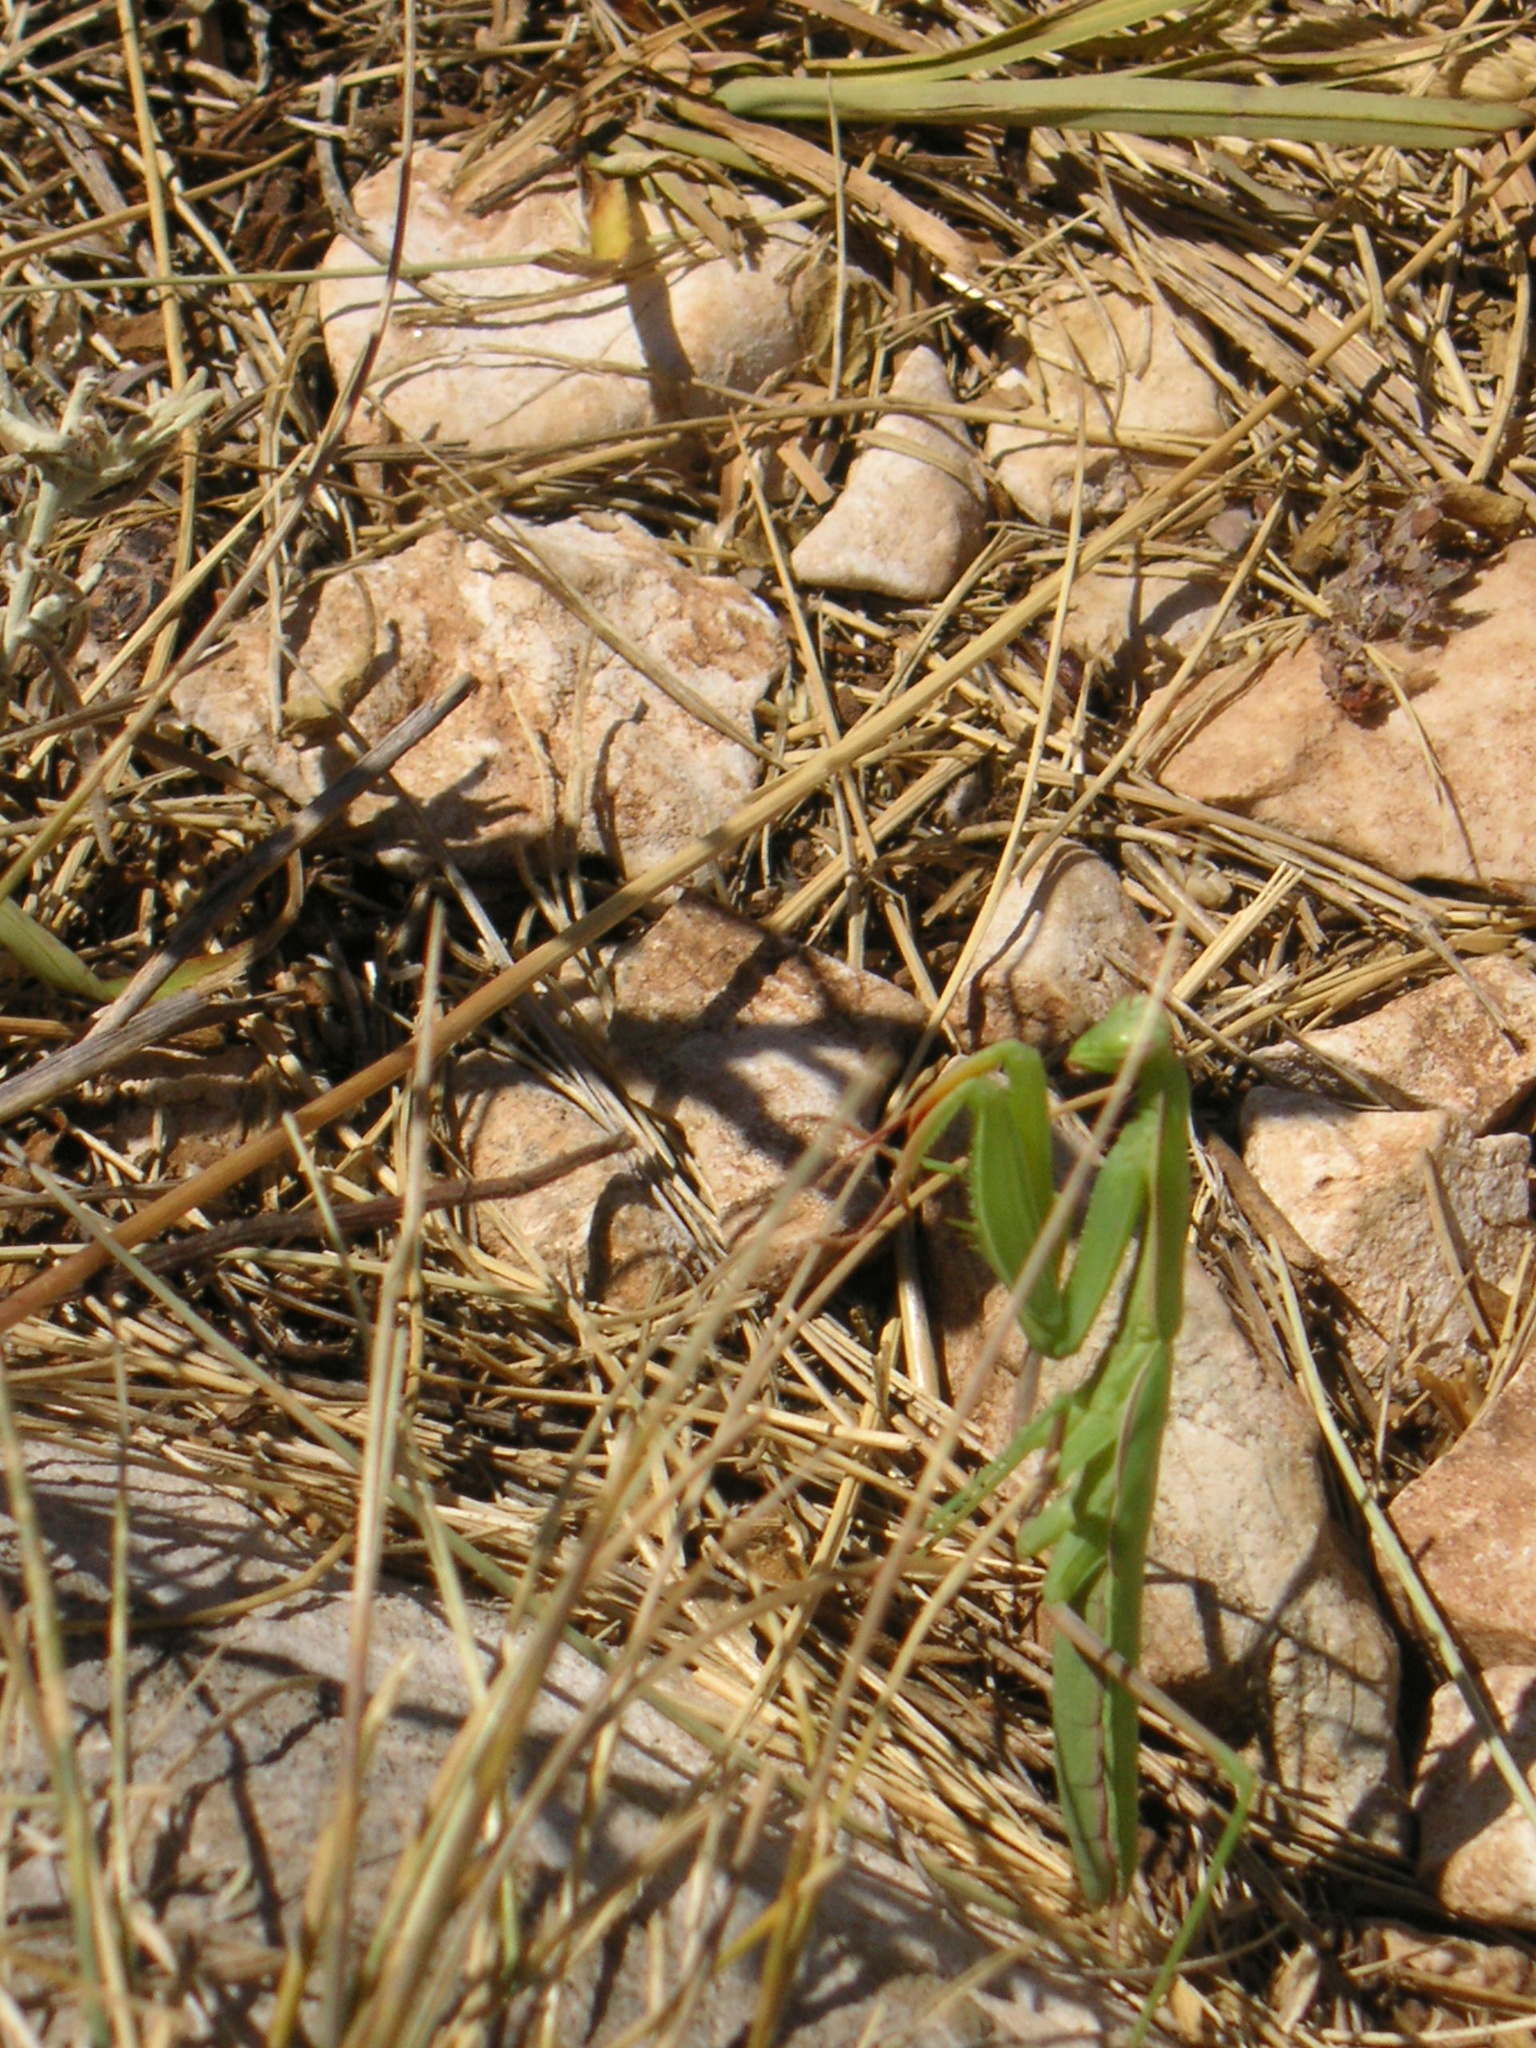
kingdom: Animalia
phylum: Arthropoda
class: Insecta
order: Mantodea
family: Mantidae
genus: Mantis
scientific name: Mantis religiosa
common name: Praying mantis
